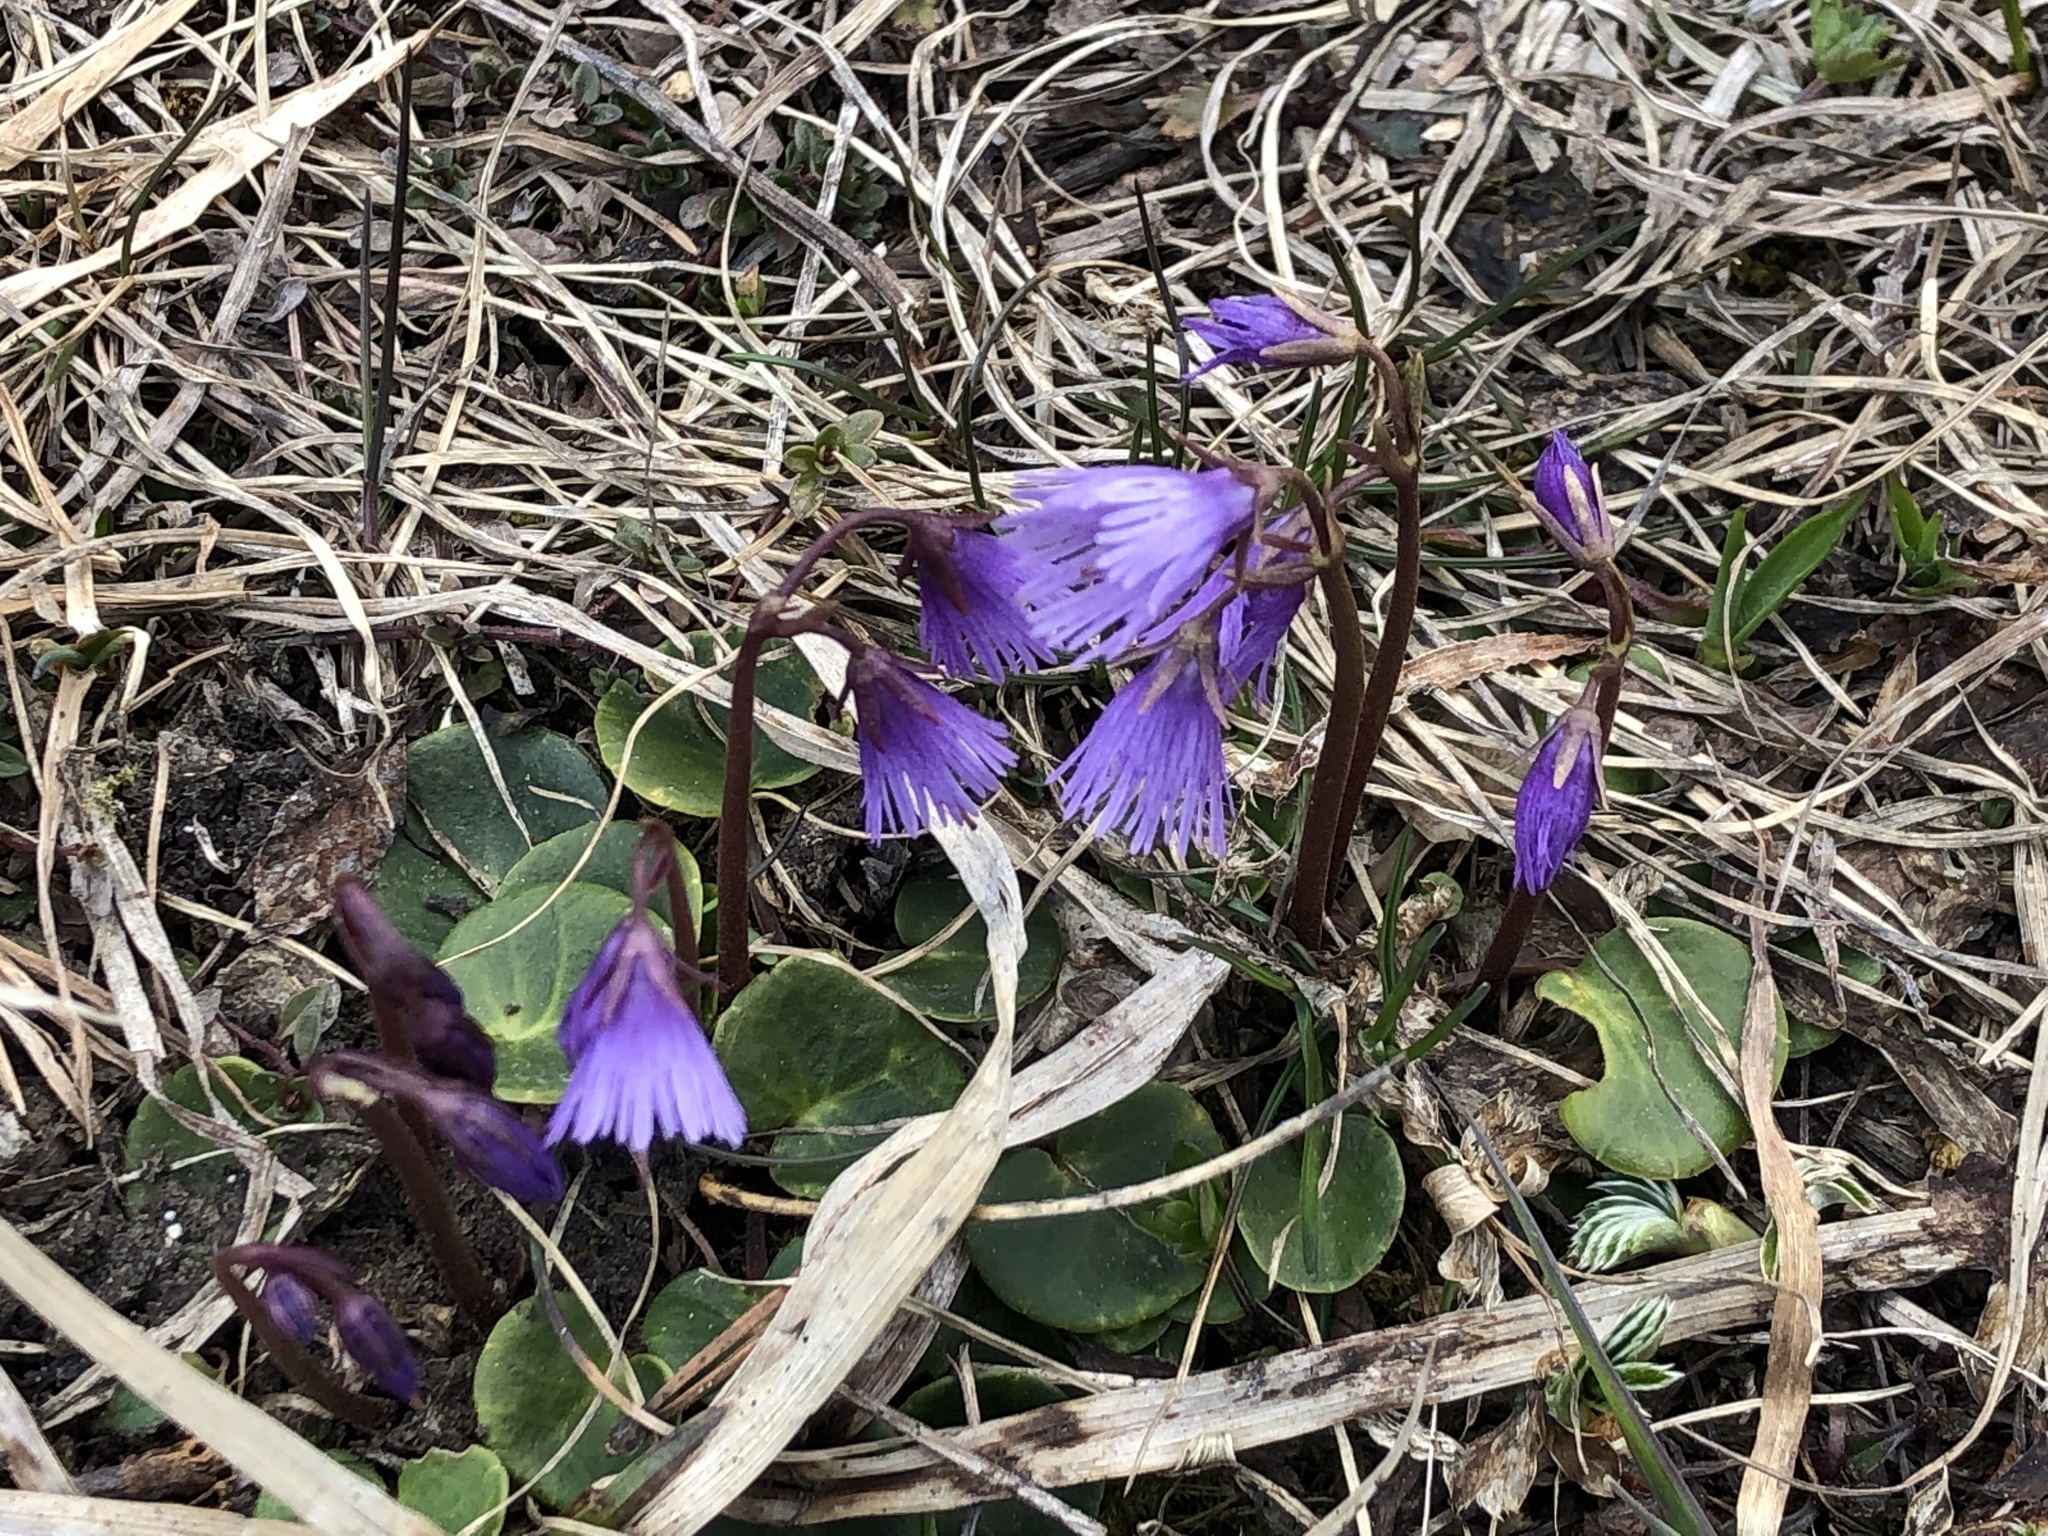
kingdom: Plantae
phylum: Tracheophyta
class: Magnoliopsida
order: Ericales
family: Primulaceae
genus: Soldanella
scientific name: Soldanella alpina
